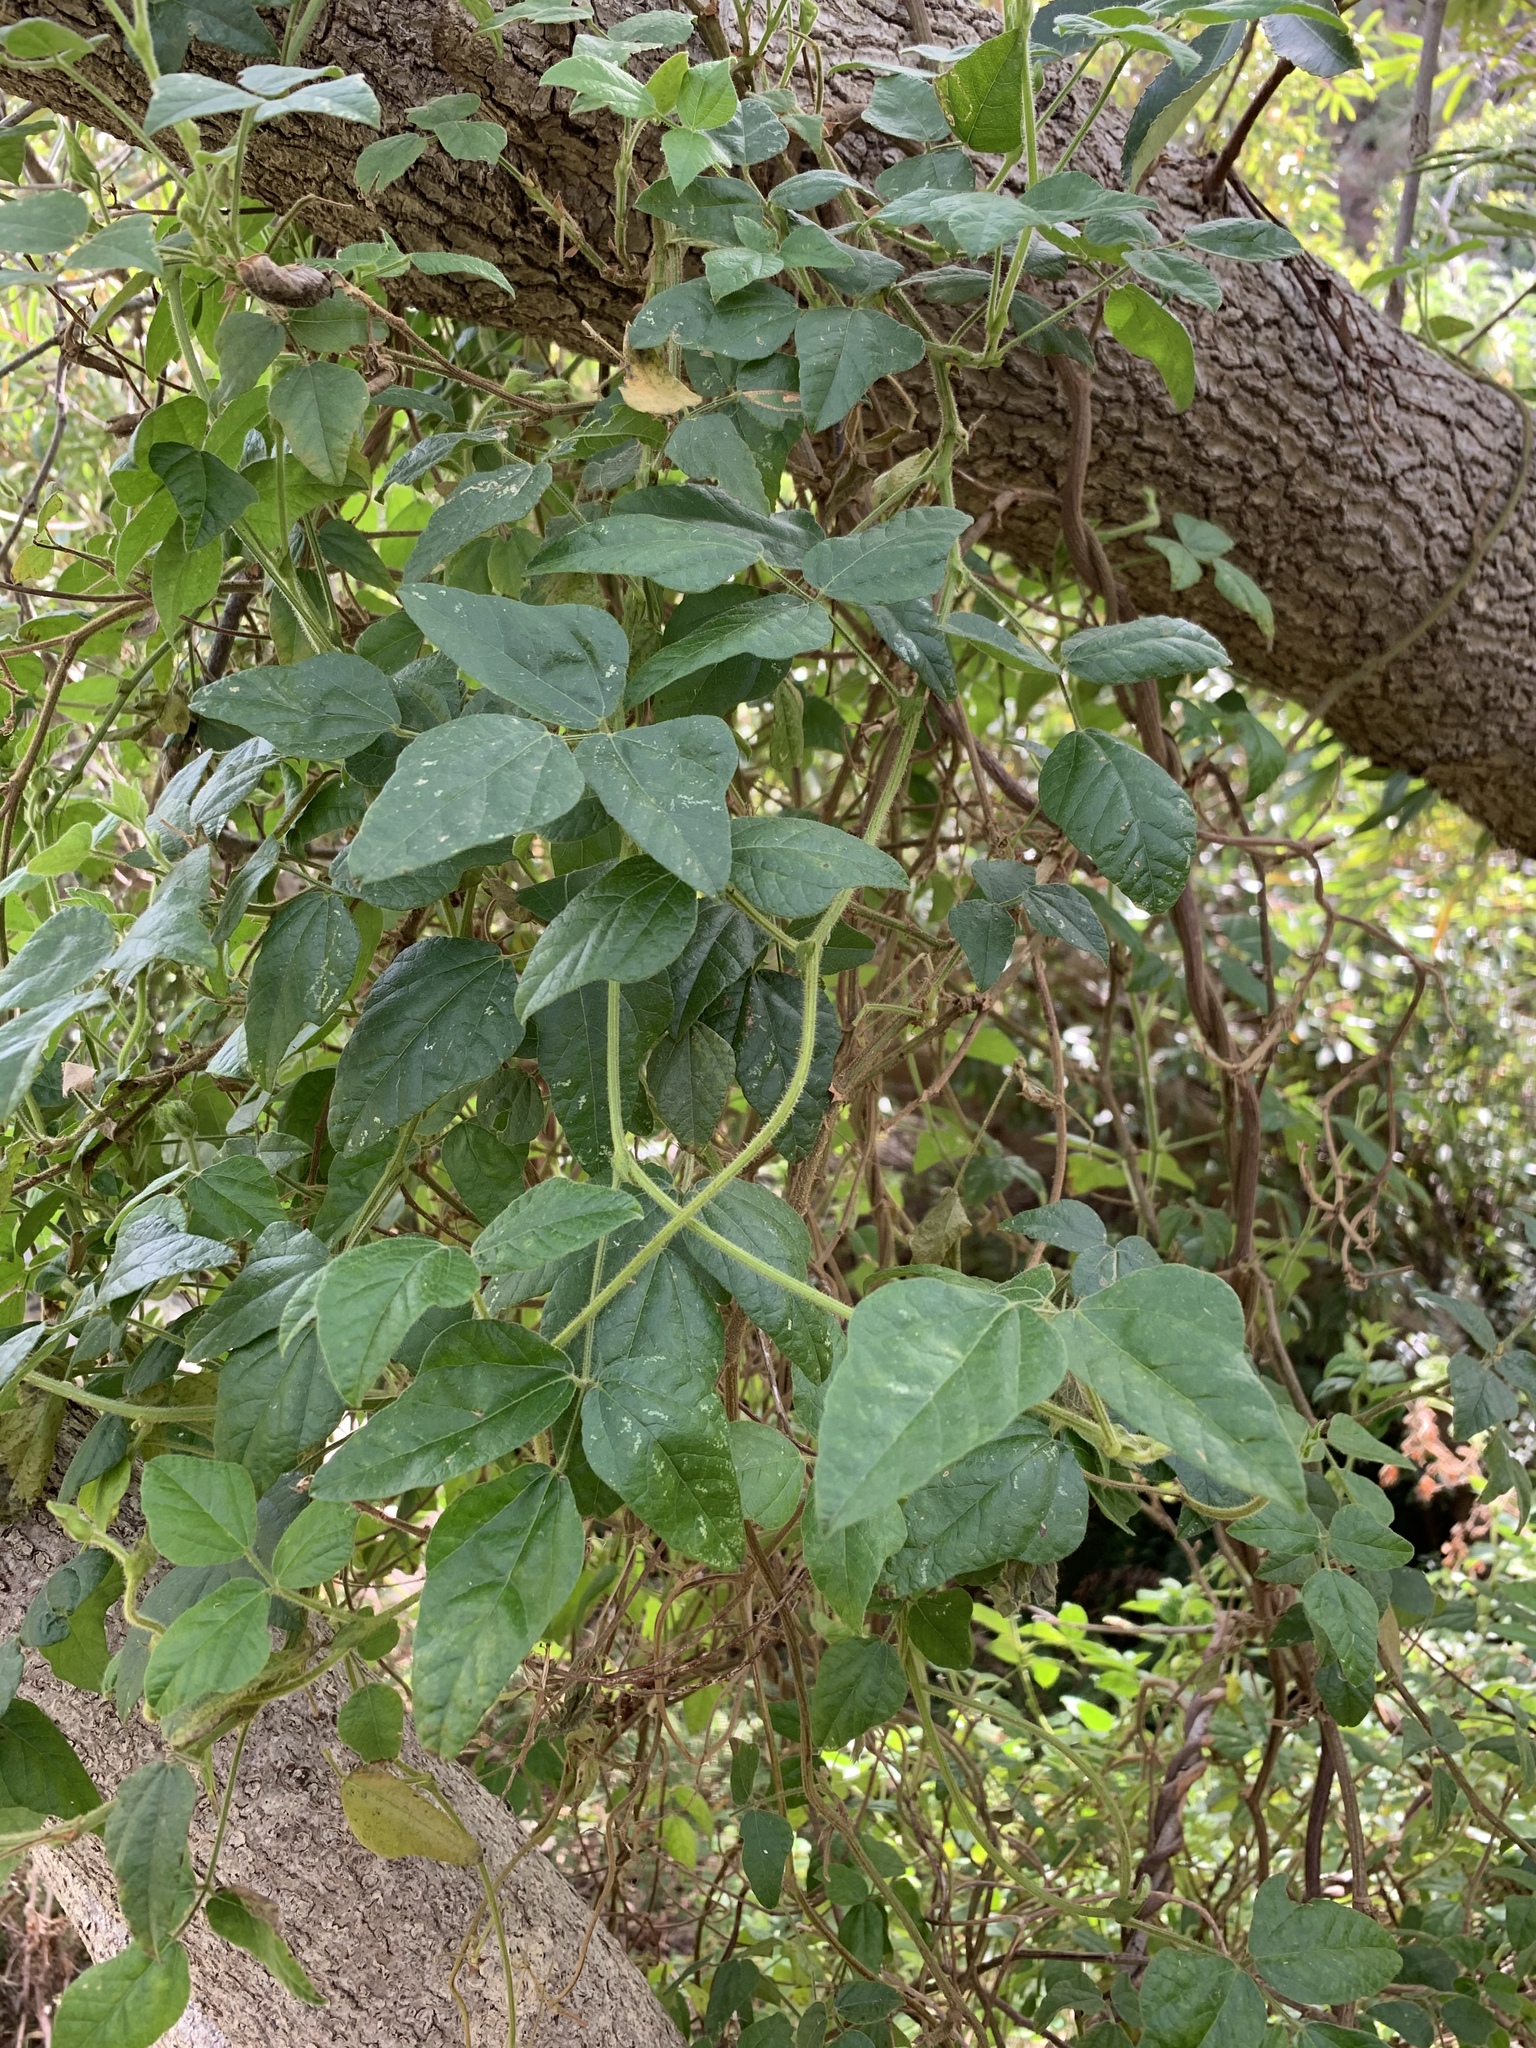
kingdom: Plantae
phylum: Tracheophyta
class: Magnoliopsida
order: Fabales
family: Fabaceae
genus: Bolusafra
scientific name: Bolusafra bituminosa
